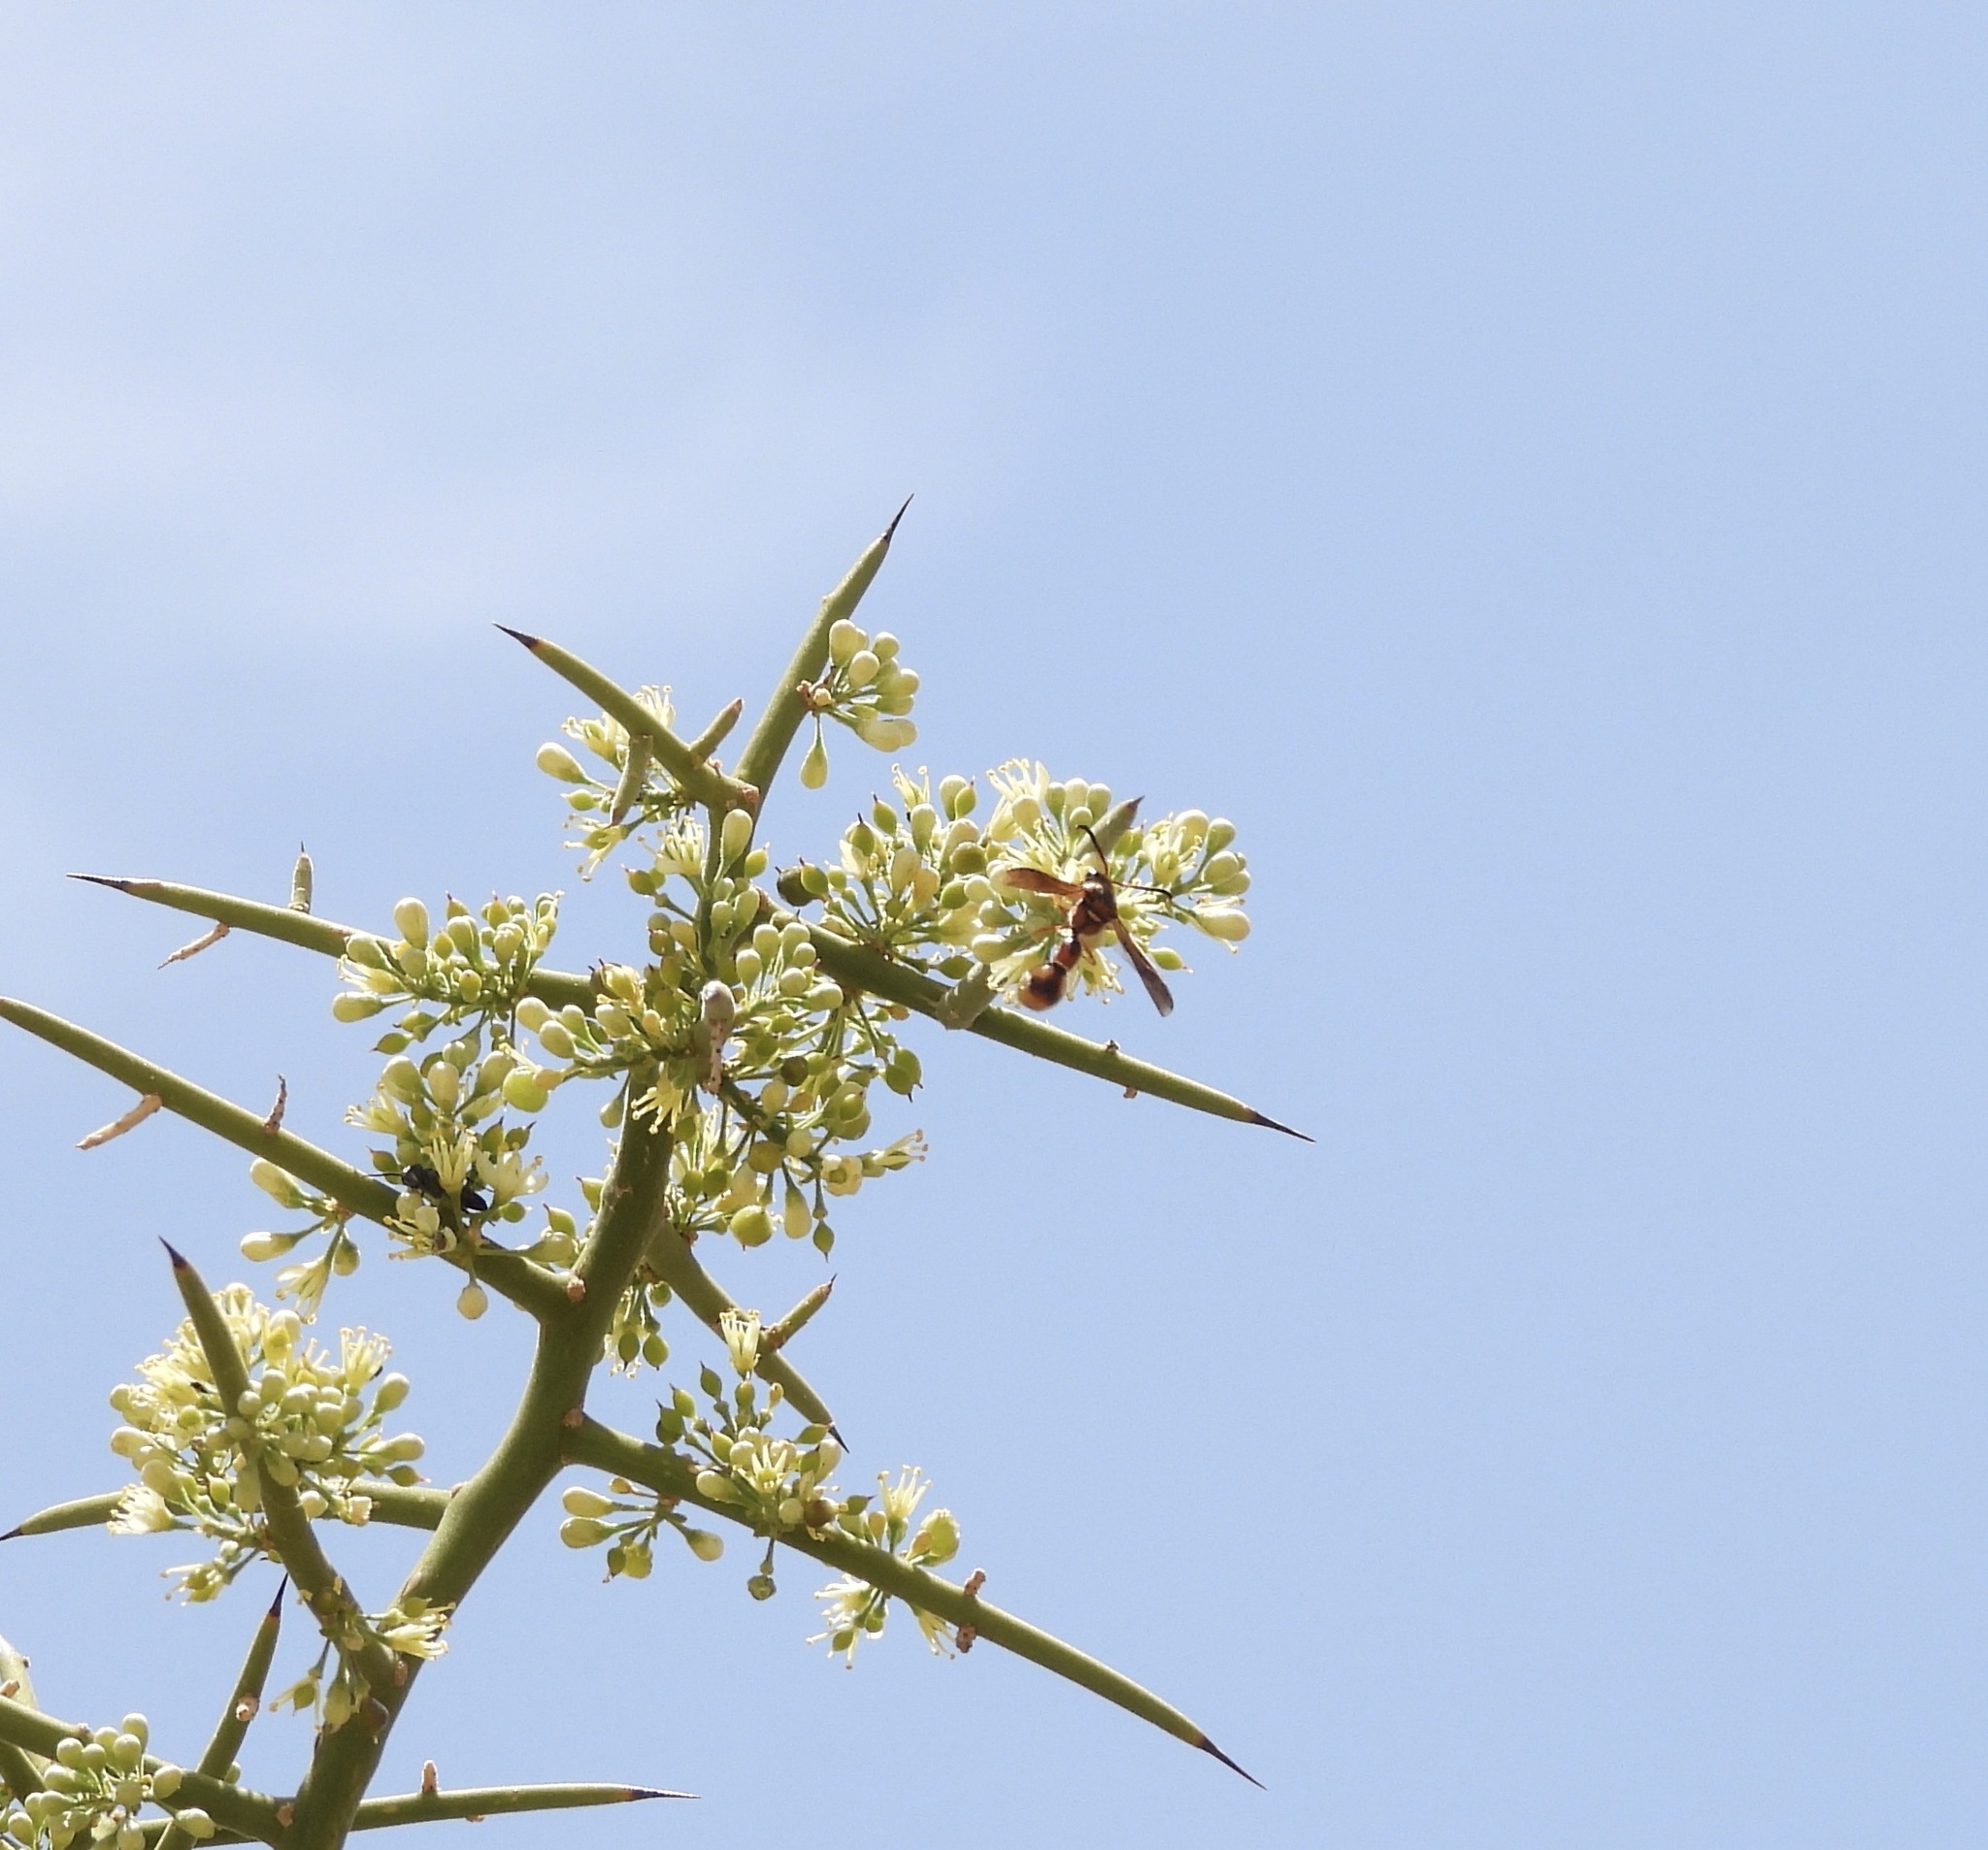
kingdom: Animalia
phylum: Arthropoda
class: Insecta
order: Hymenoptera
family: Vespidae
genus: Eumenes
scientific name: Eumenes bollii
